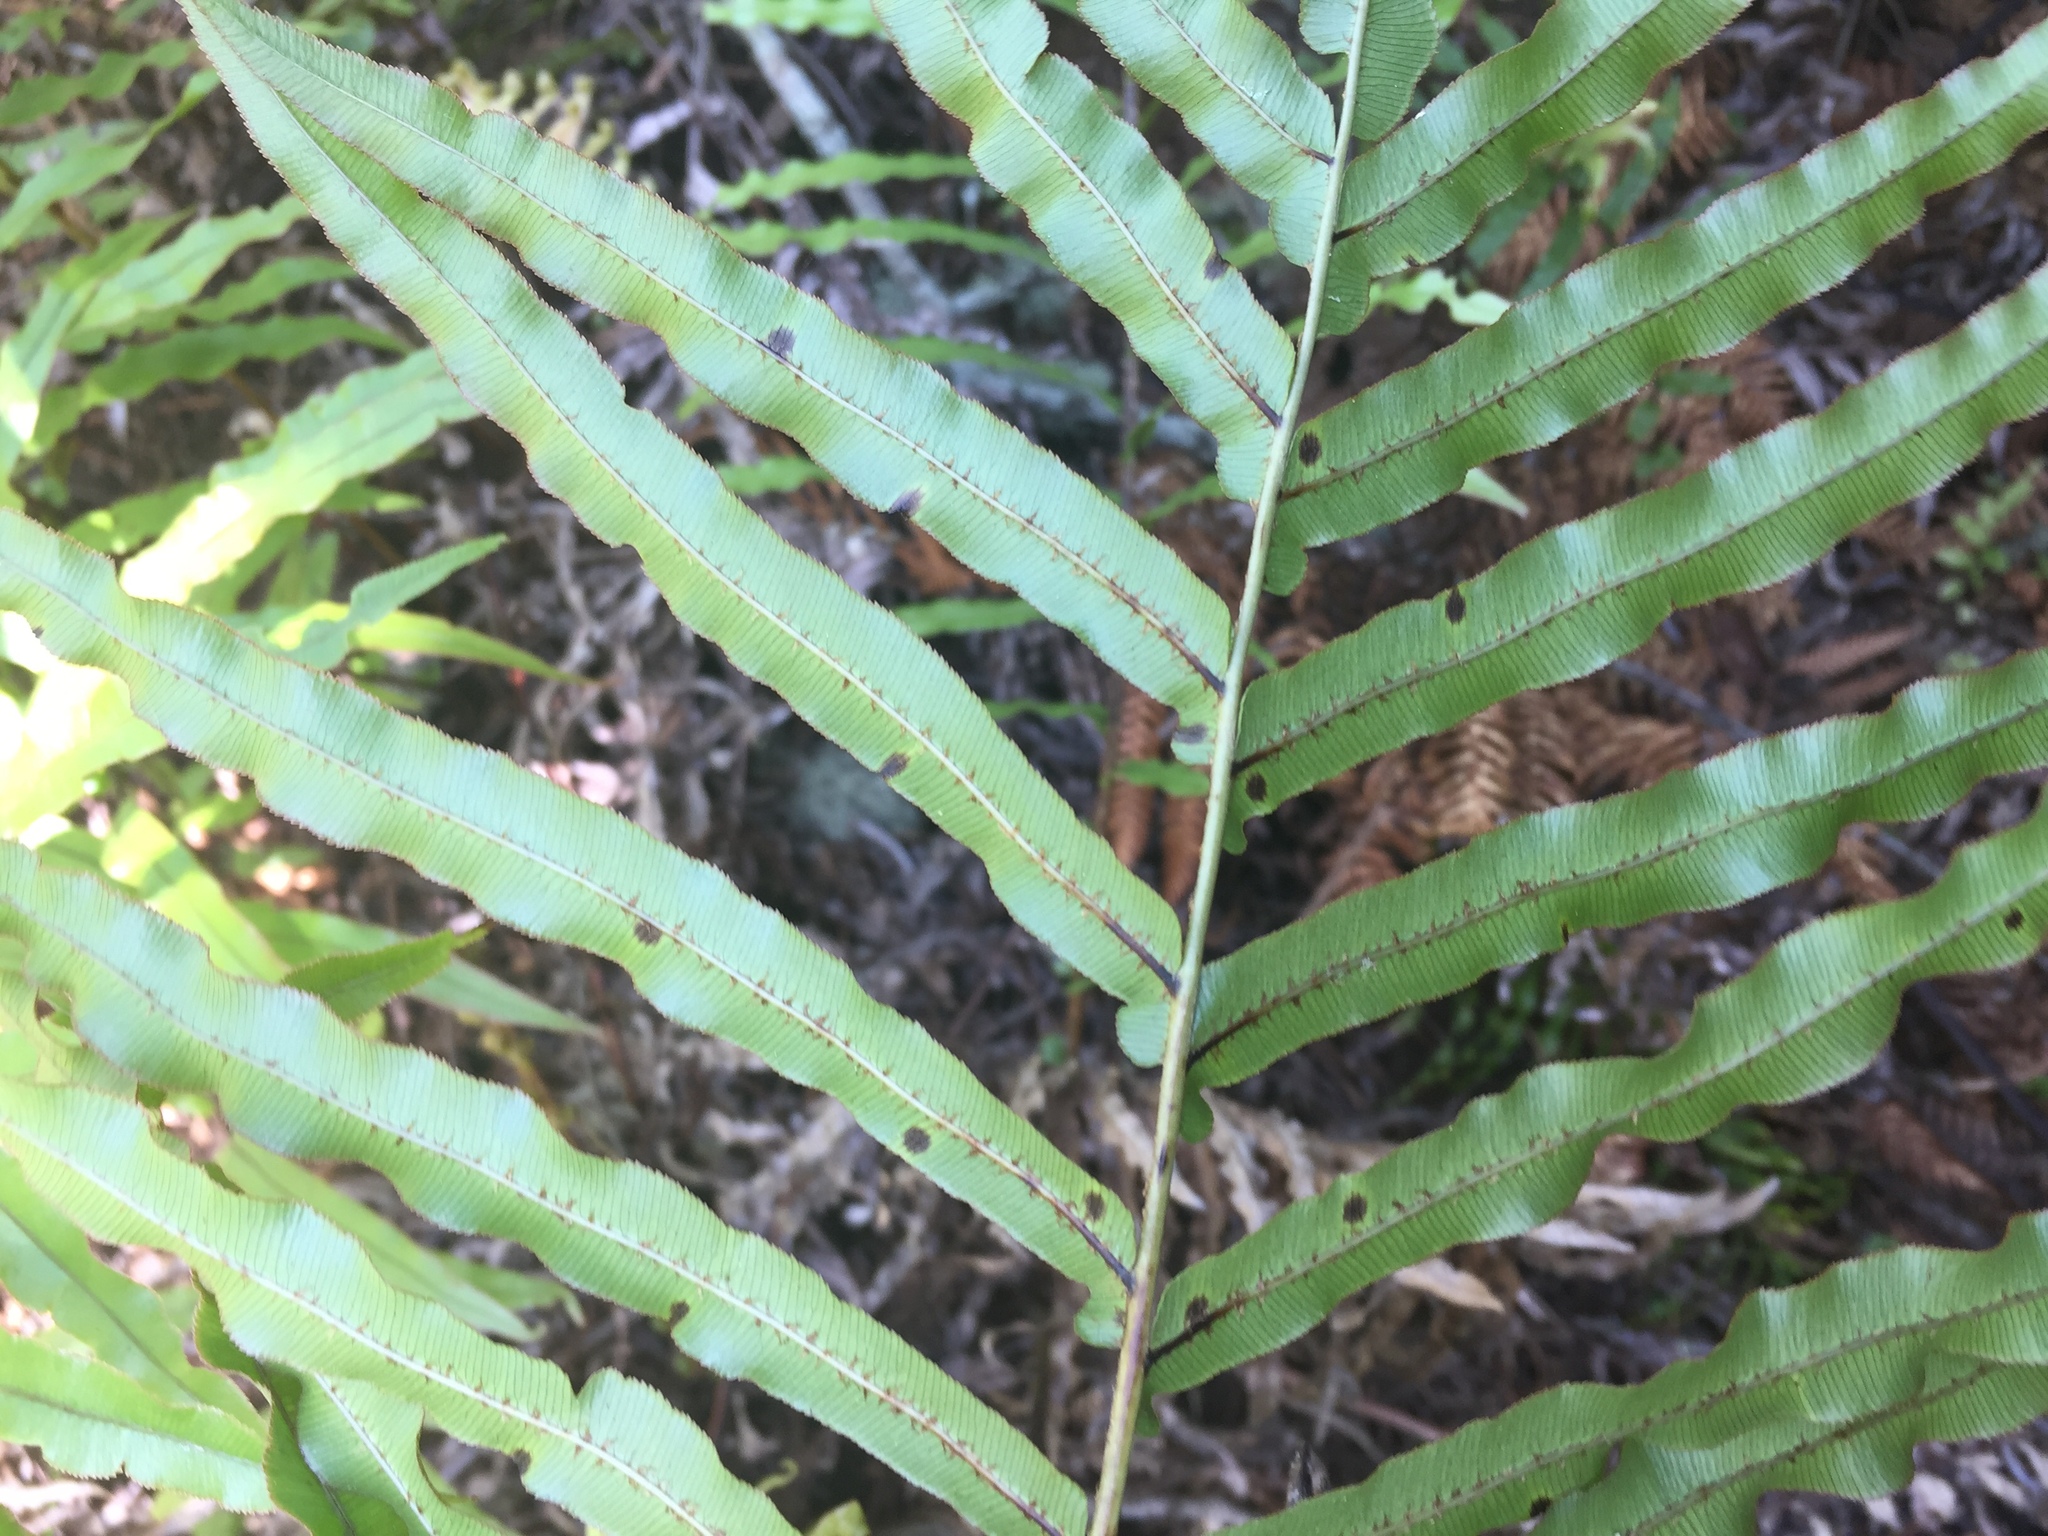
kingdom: Plantae
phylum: Tracheophyta
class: Polypodiopsida
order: Polypodiales
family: Blechnaceae
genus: Parablechnum
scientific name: Parablechnum minus
